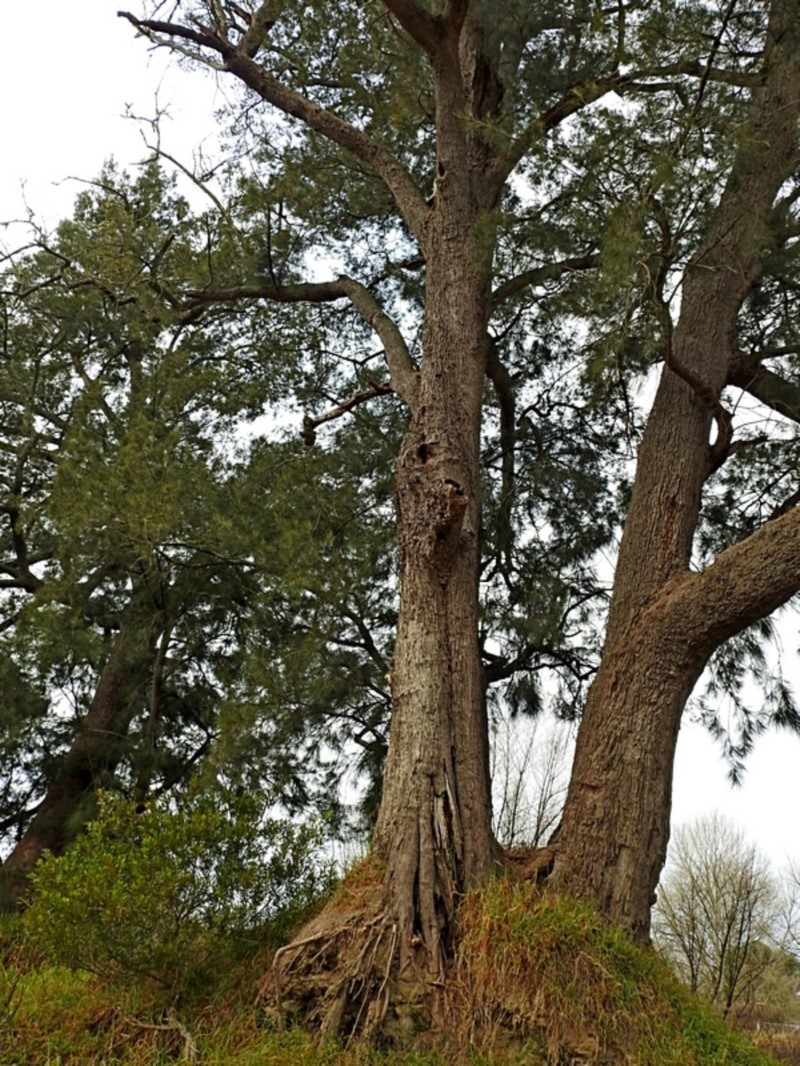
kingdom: Plantae
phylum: Tracheophyta
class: Magnoliopsida
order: Fagales
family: Casuarinaceae
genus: Casuarina
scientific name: Casuarina cunninghamiana
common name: River sheoak
